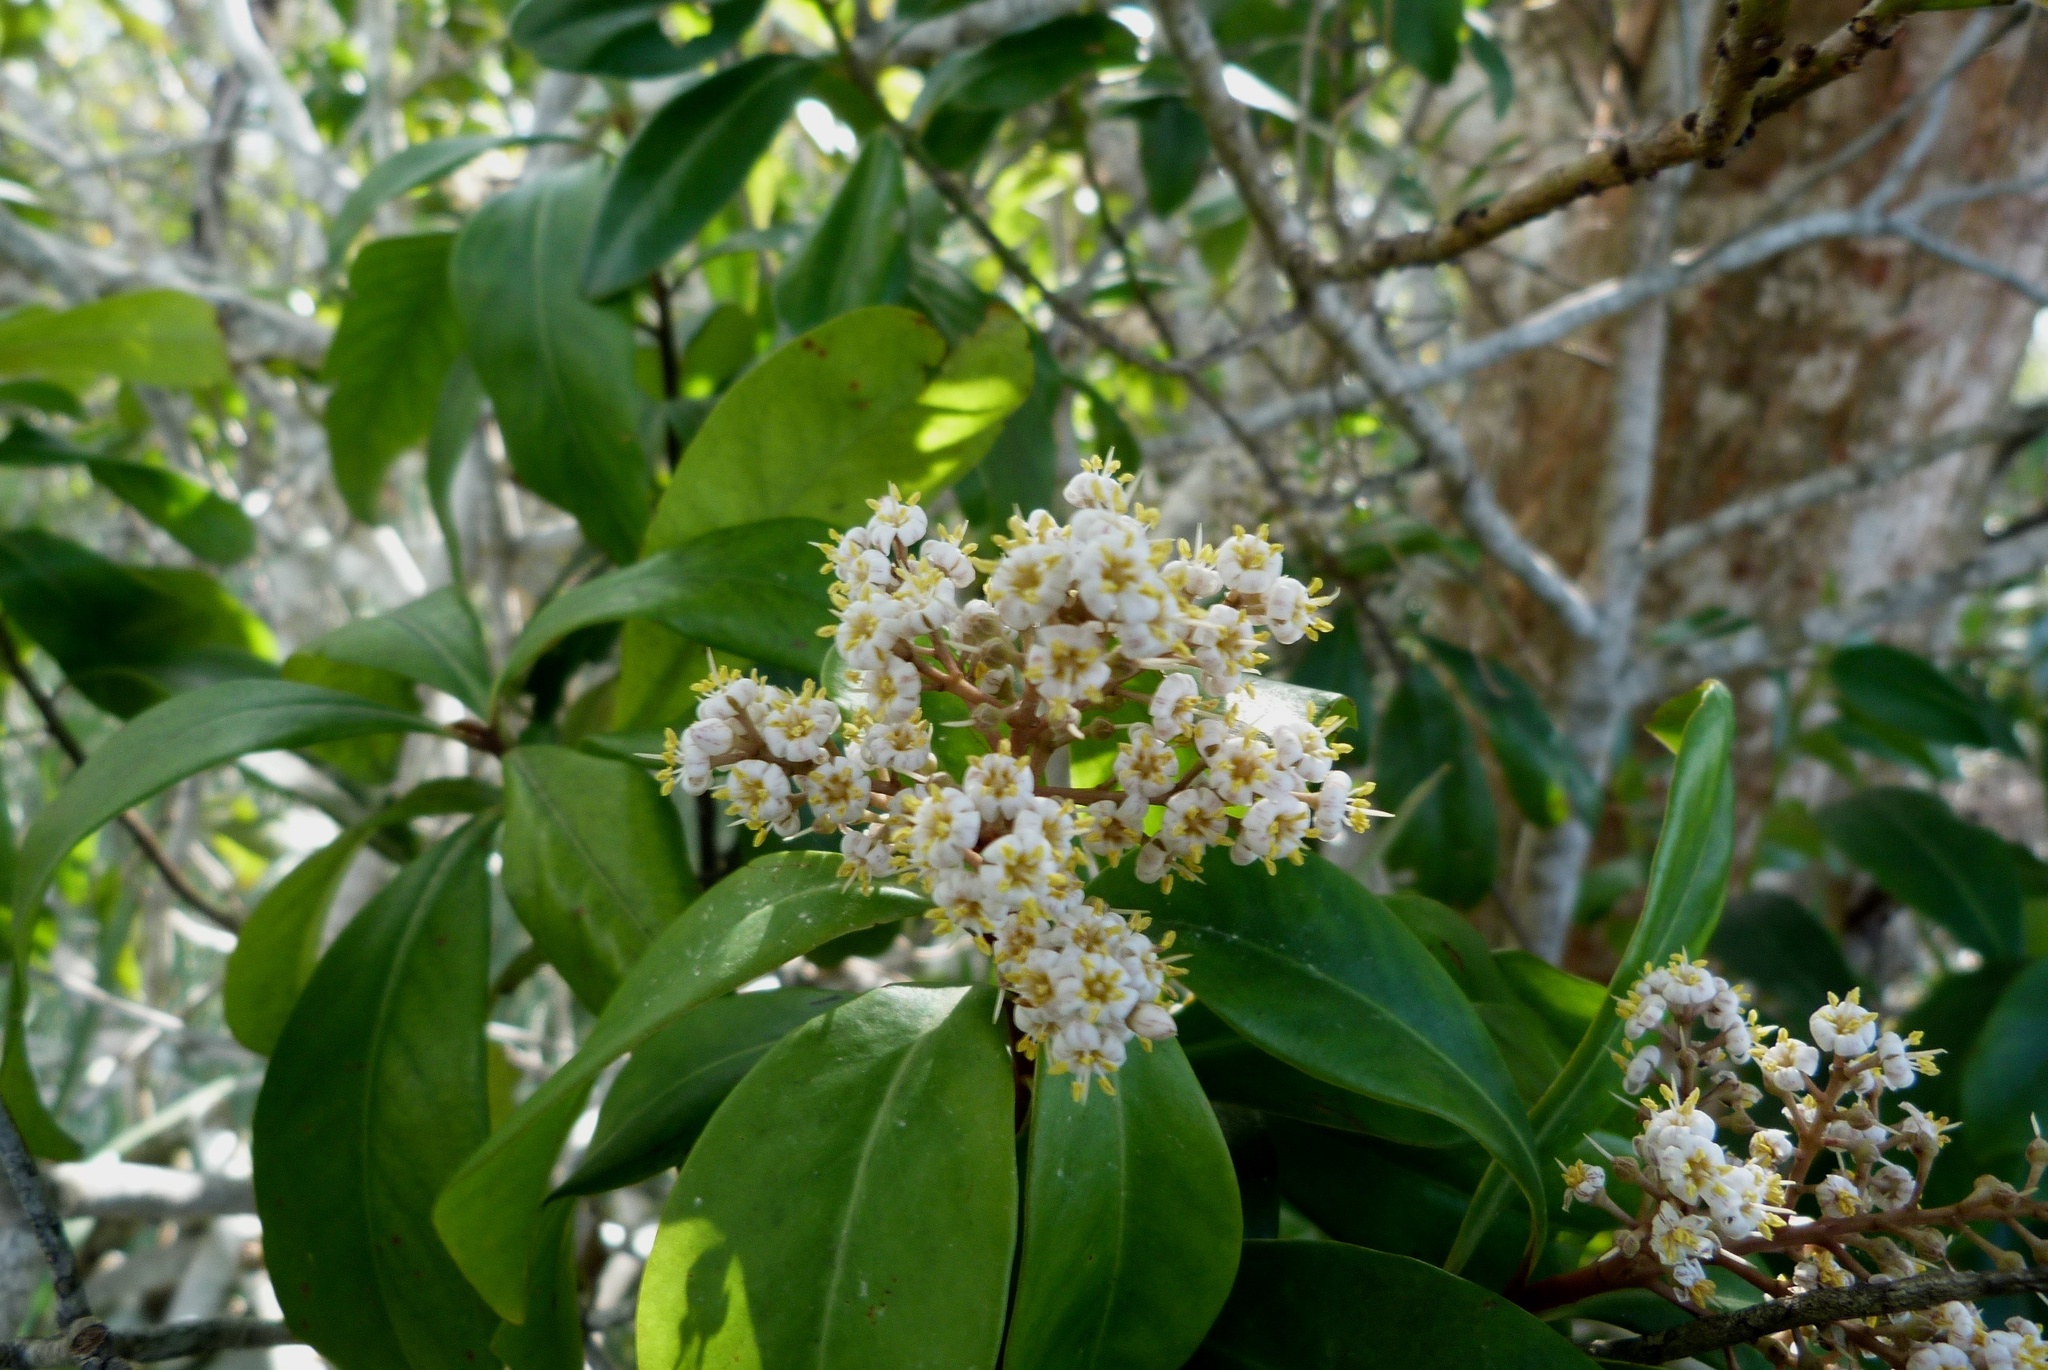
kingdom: Plantae
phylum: Tracheophyta
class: Magnoliopsida
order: Ericales
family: Primulaceae
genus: Ardisia
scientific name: Ardisia escallonioides
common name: Island marlberry
